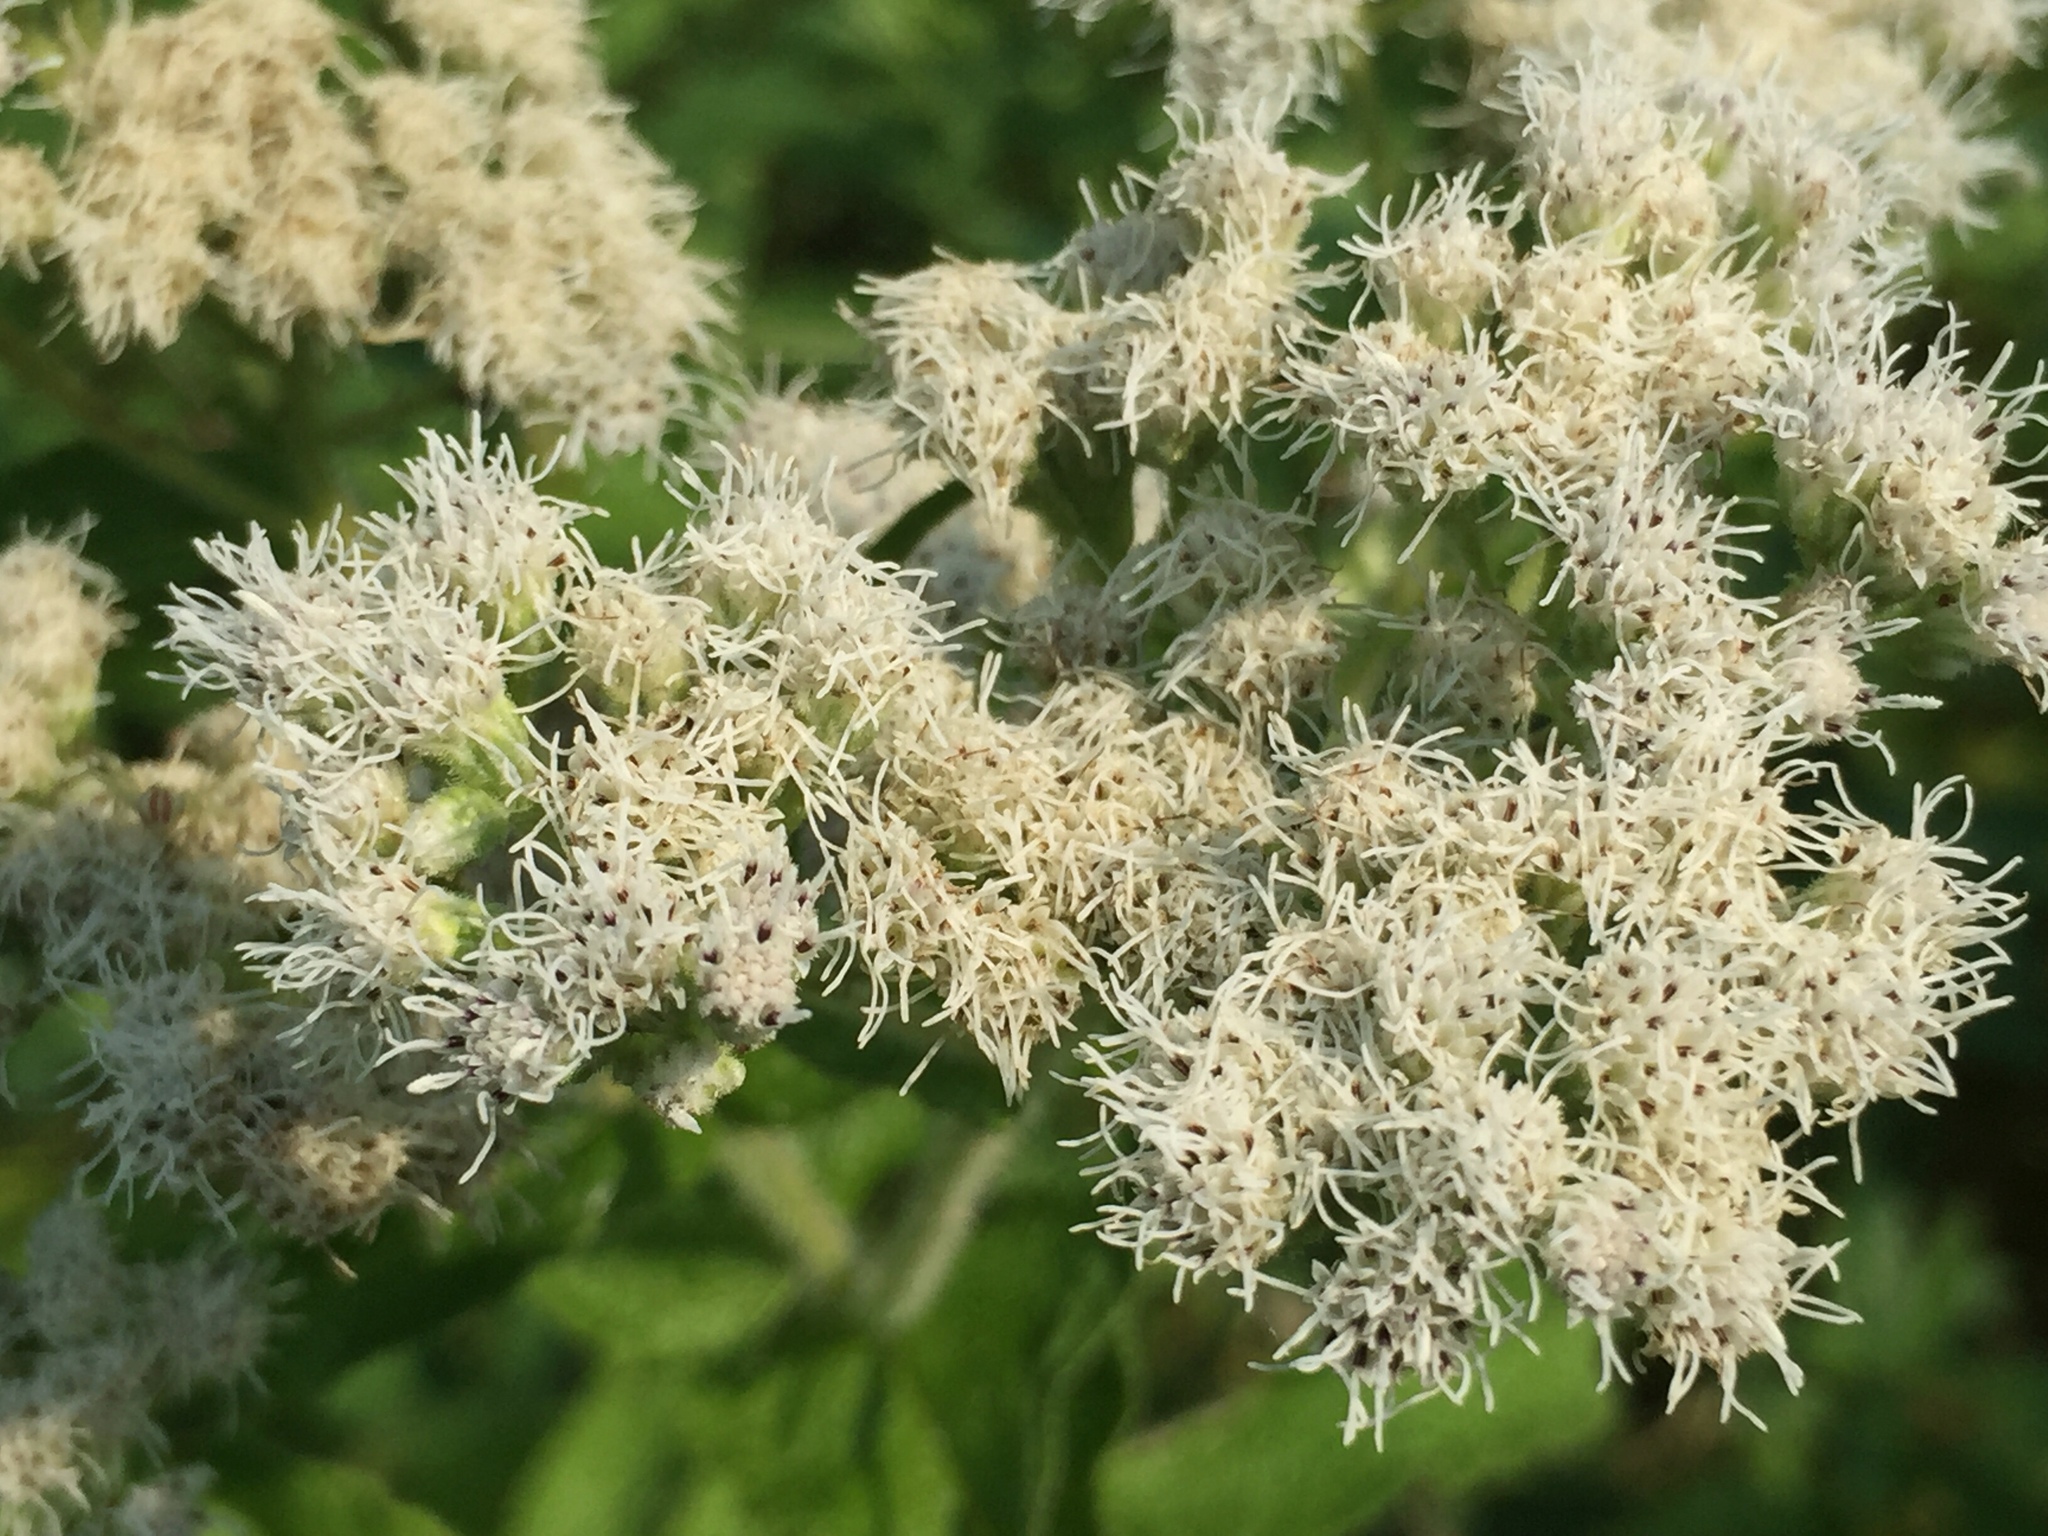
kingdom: Plantae
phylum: Tracheophyta
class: Magnoliopsida
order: Asterales
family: Asteraceae
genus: Eupatorium
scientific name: Eupatorium perfoliatum
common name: Boneset
